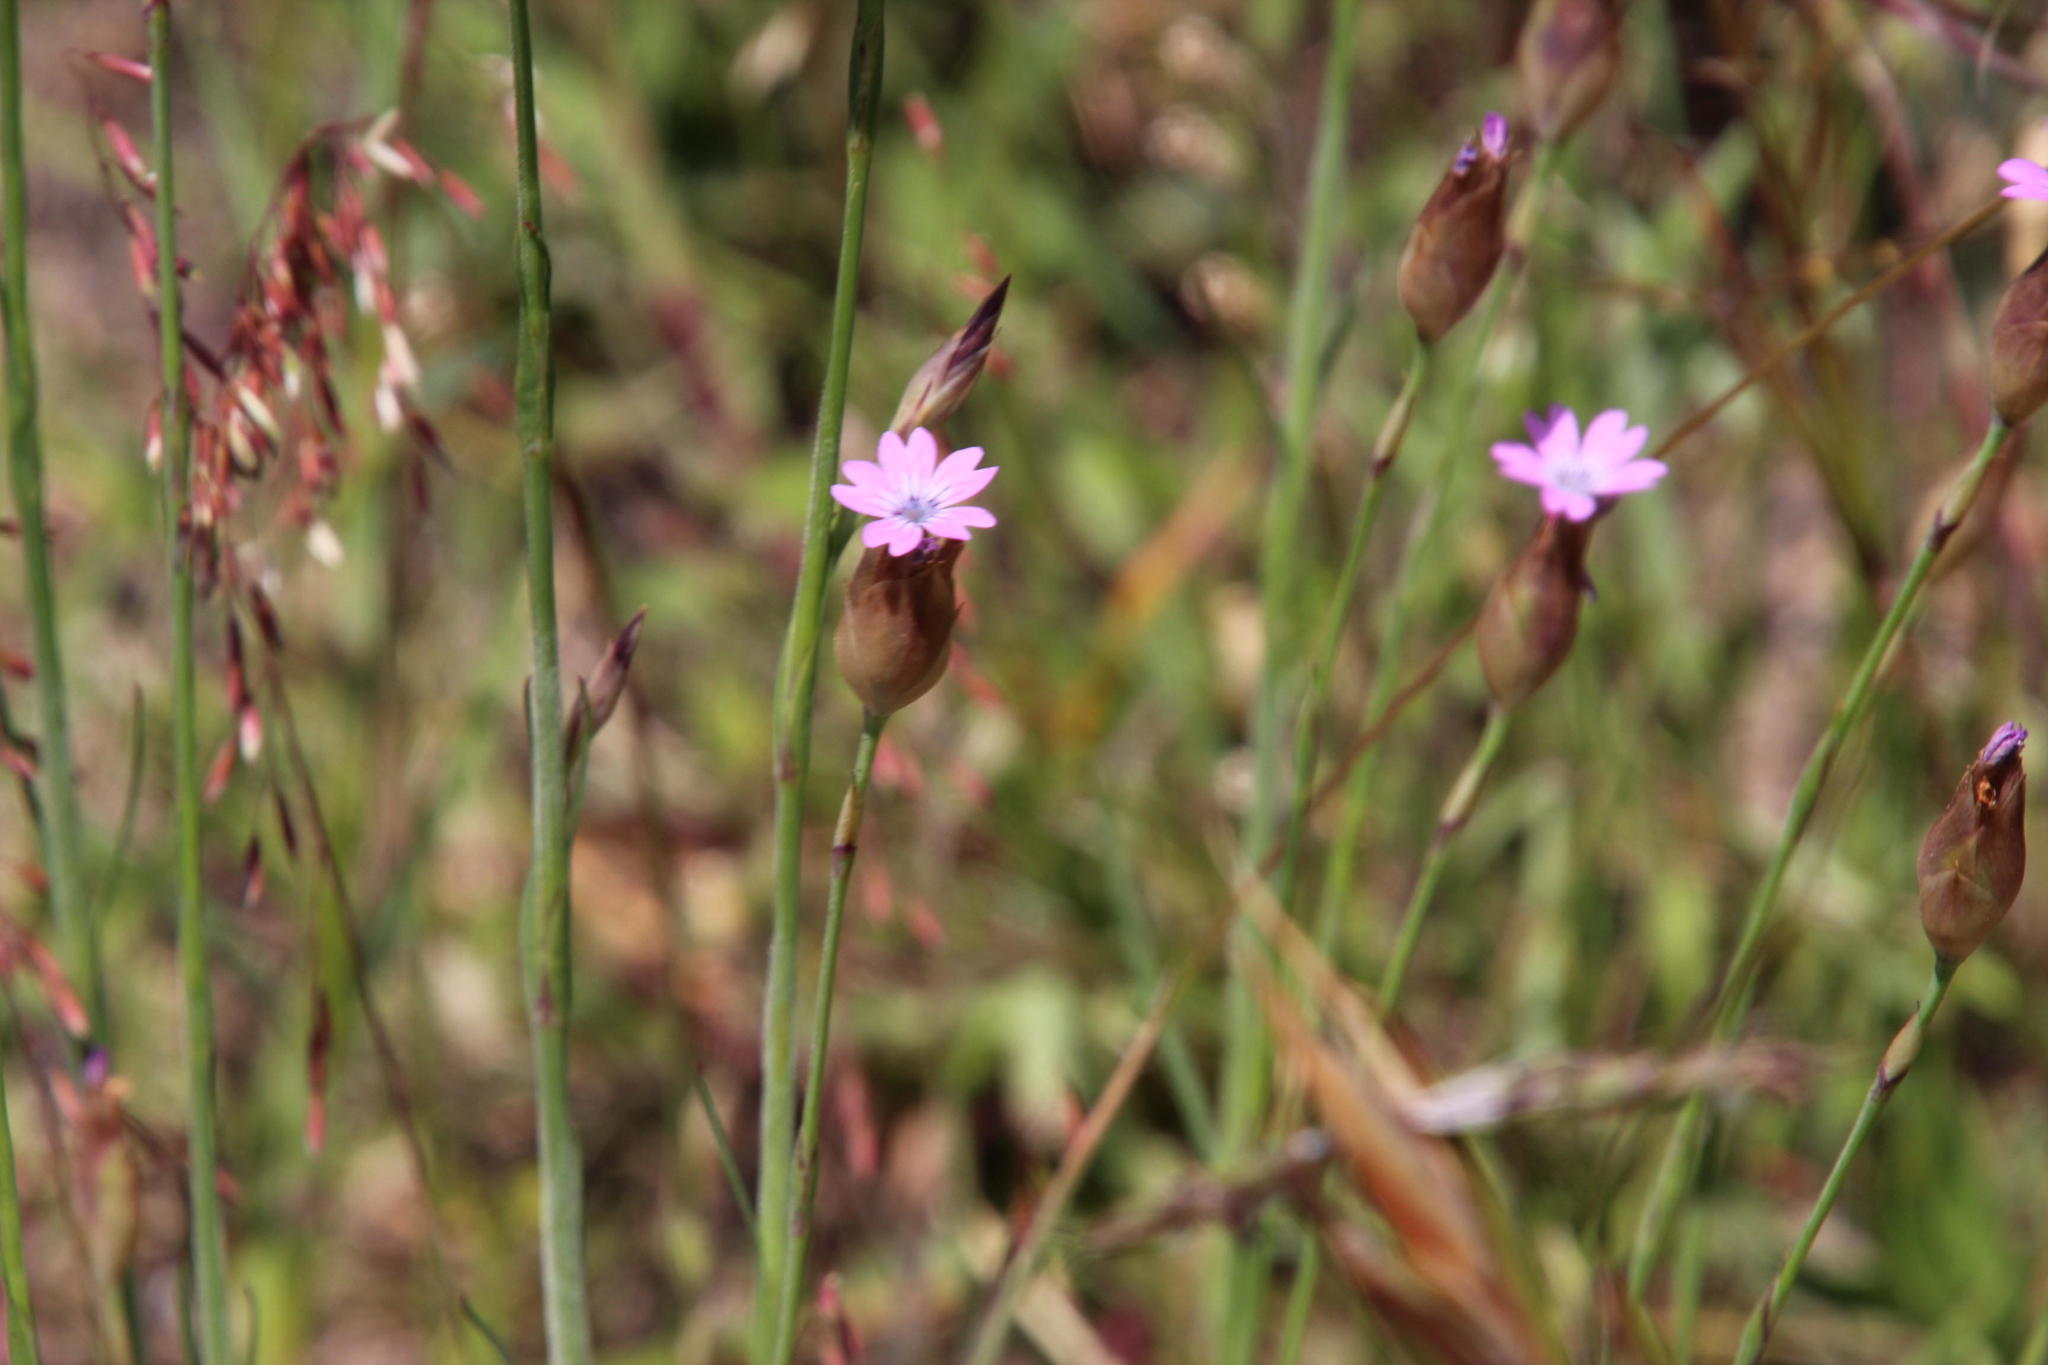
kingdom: Plantae
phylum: Tracheophyta
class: Magnoliopsida
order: Caryophyllales
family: Caryophyllaceae
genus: Petrorhagia
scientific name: Petrorhagia dubia
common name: Hairypink
